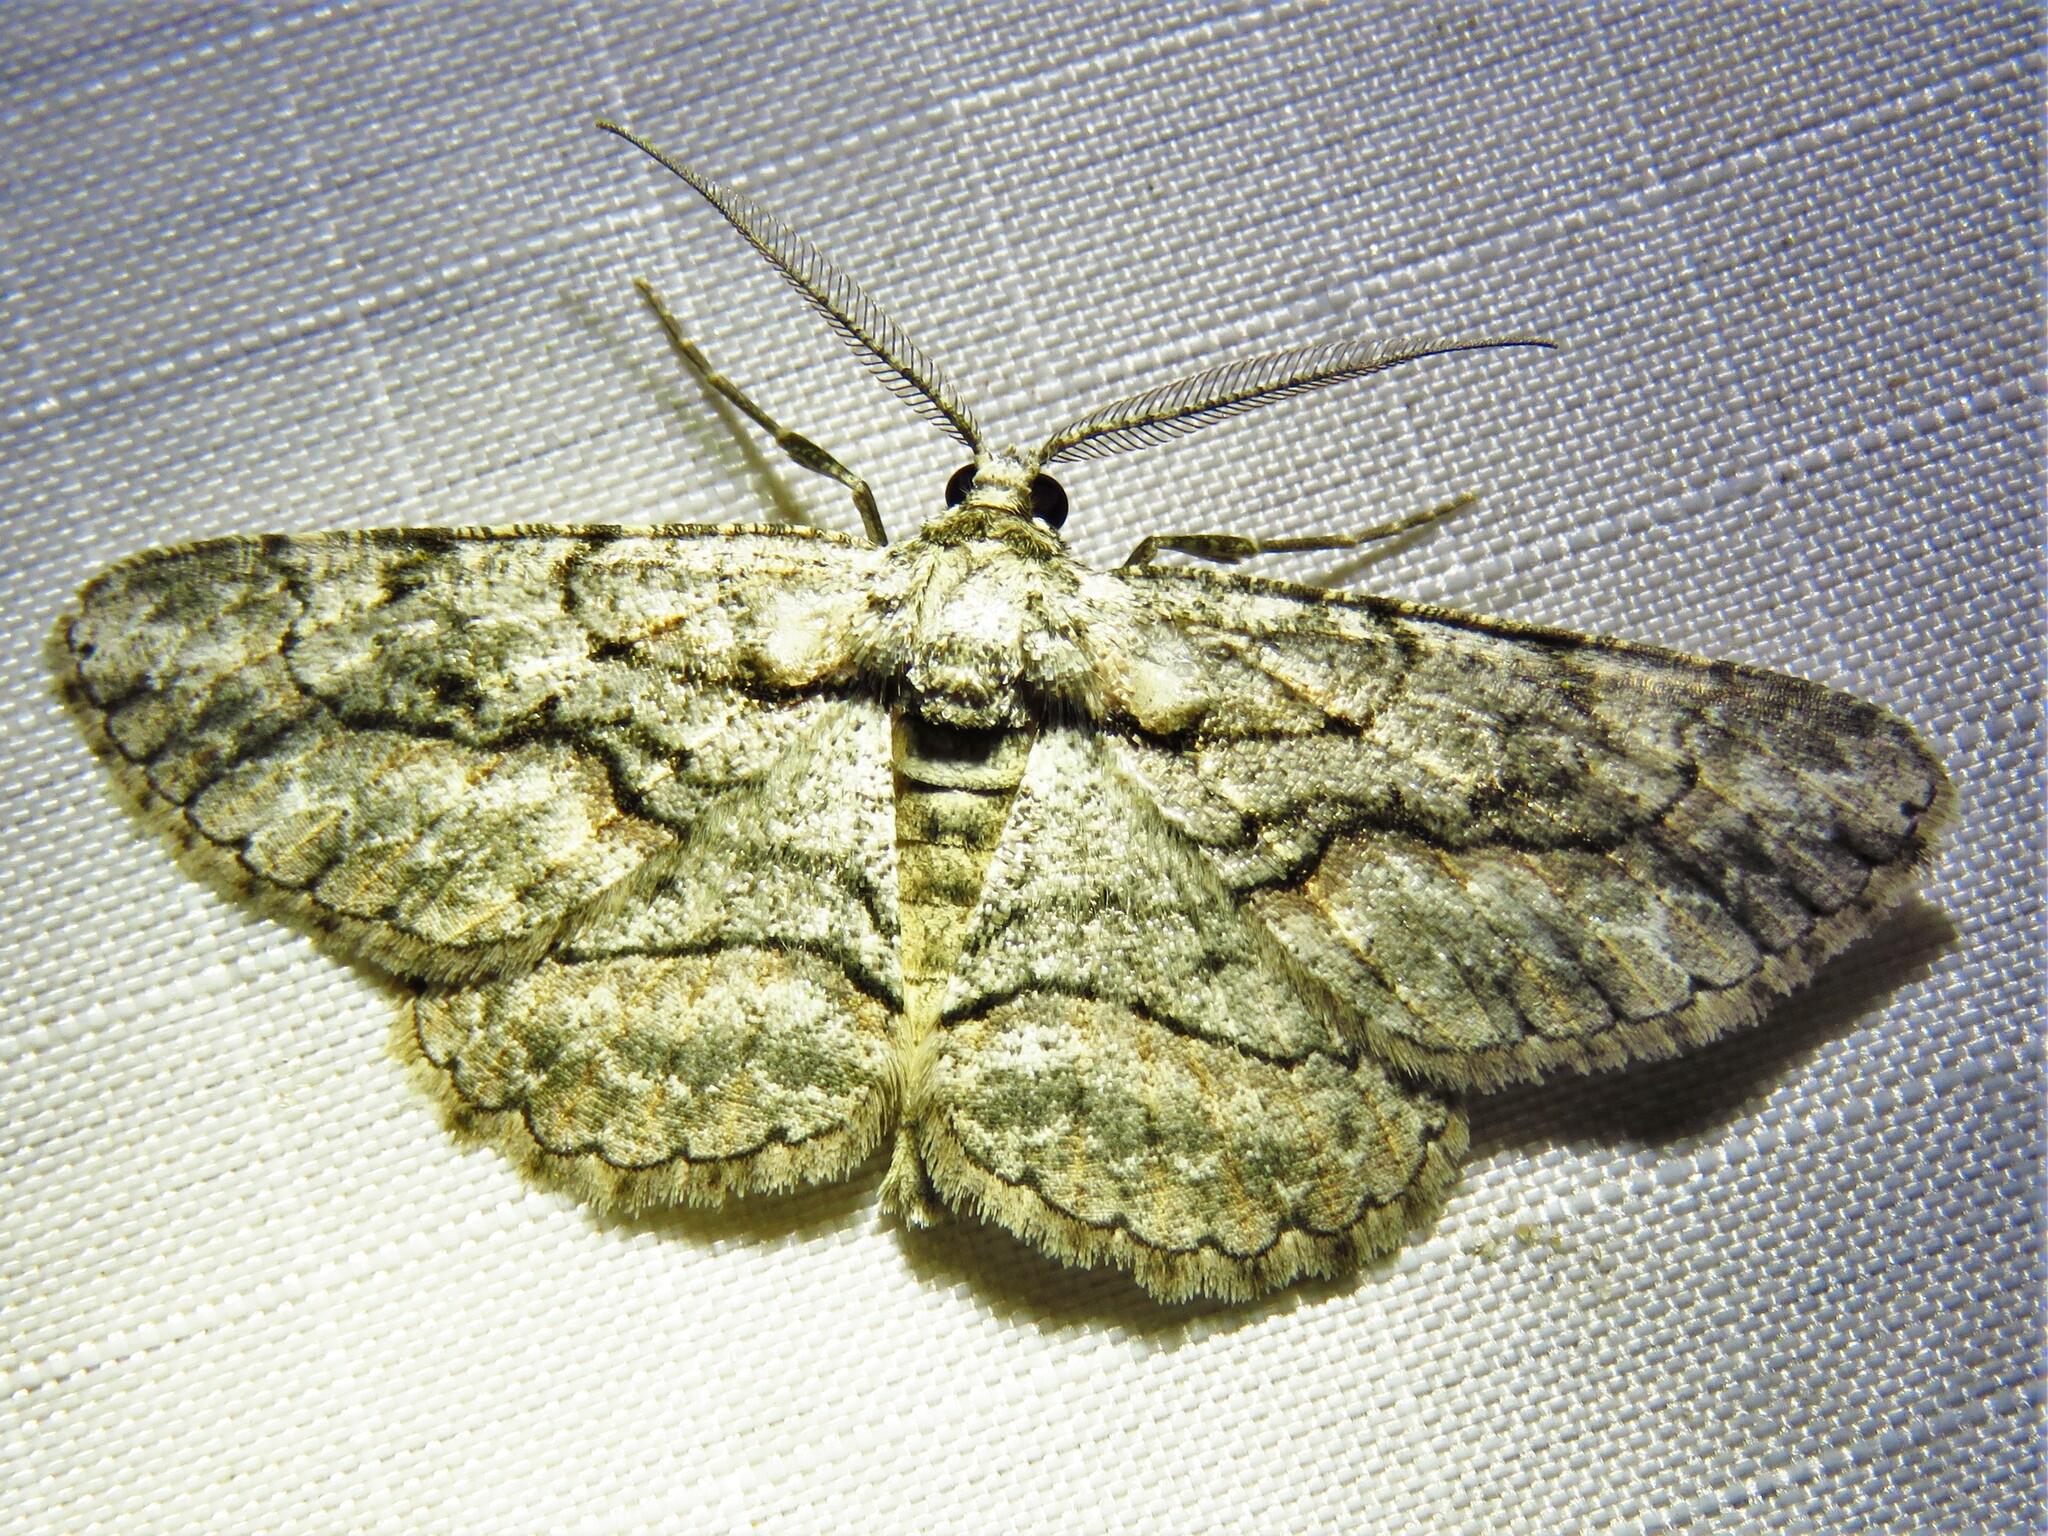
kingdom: Animalia
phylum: Arthropoda
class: Insecta
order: Lepidoptera
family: Geometridae
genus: Anavitrinella
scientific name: Anavitrinella atristrigaria
